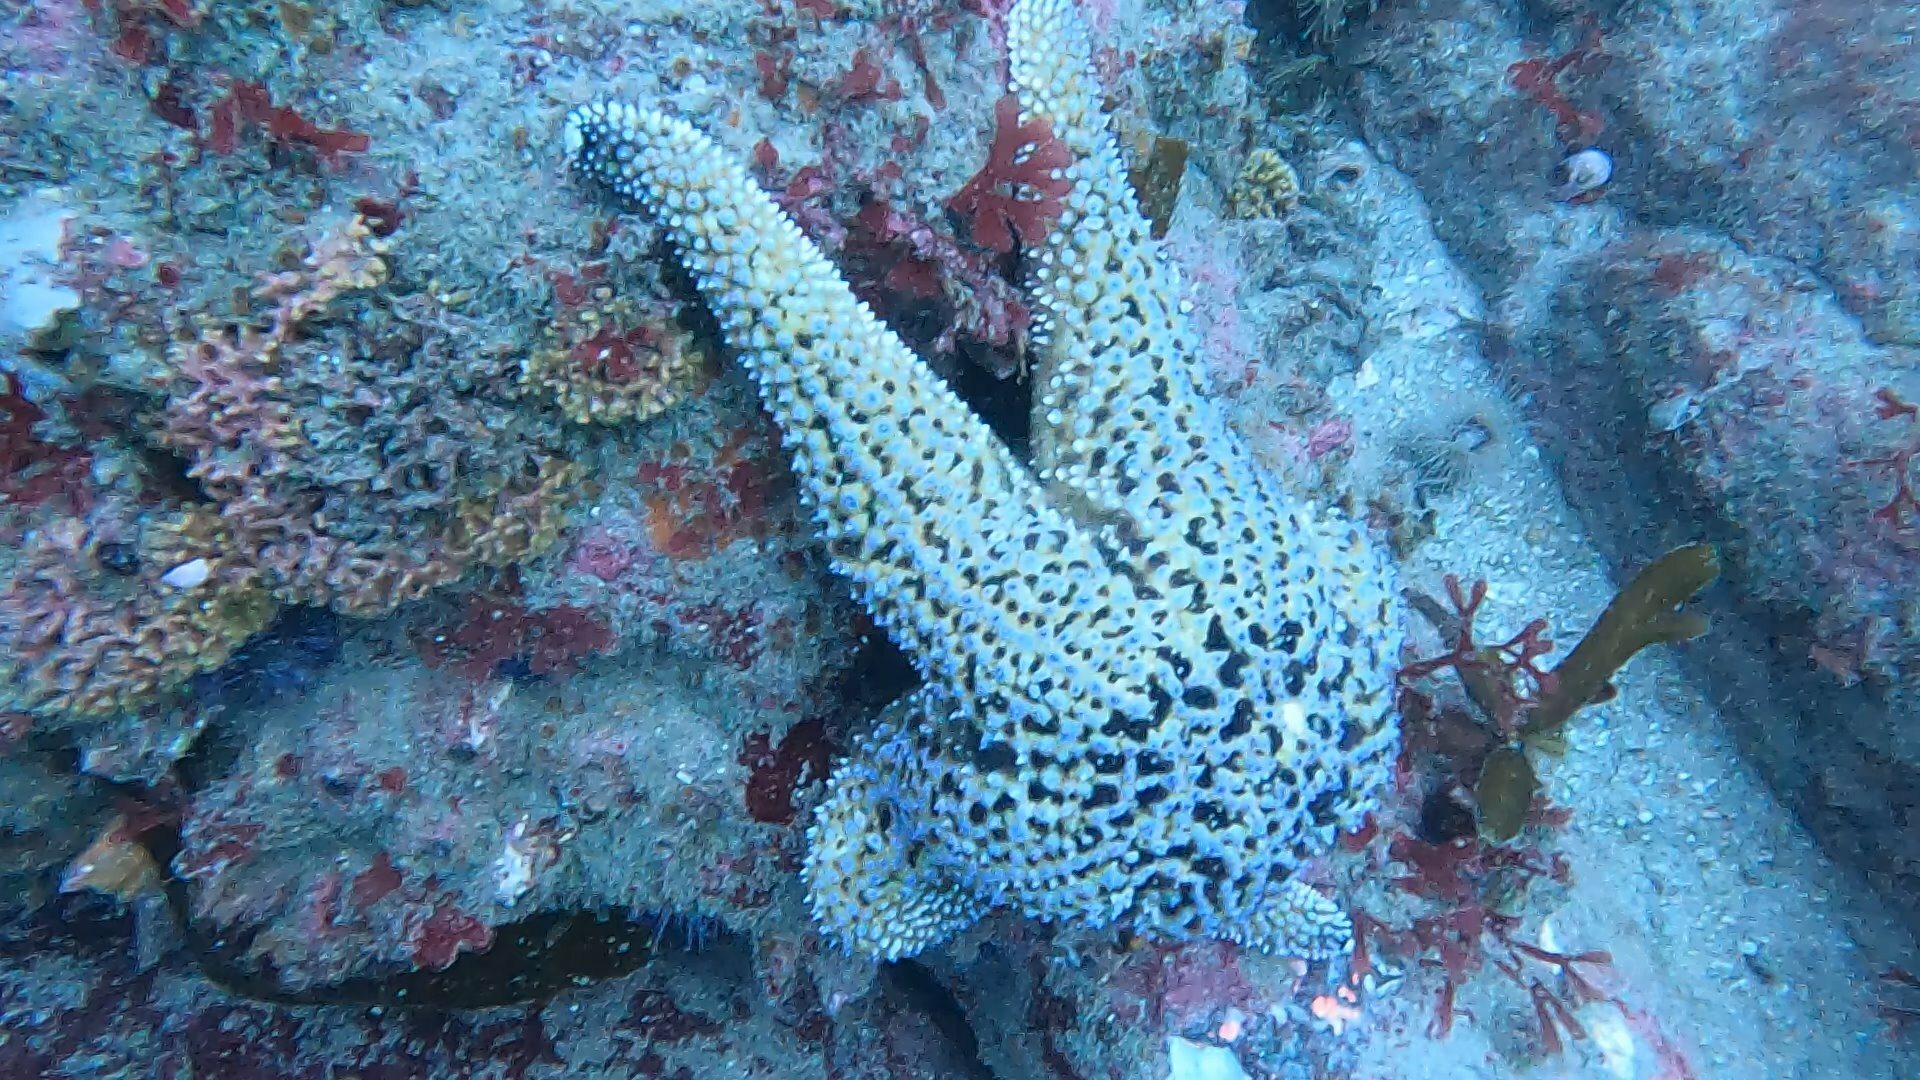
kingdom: Animalia
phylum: Echinodermata
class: Asteroidea
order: Forcipulatida
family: Asteriidae
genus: Pisaster
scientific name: Pisaster giganteus
